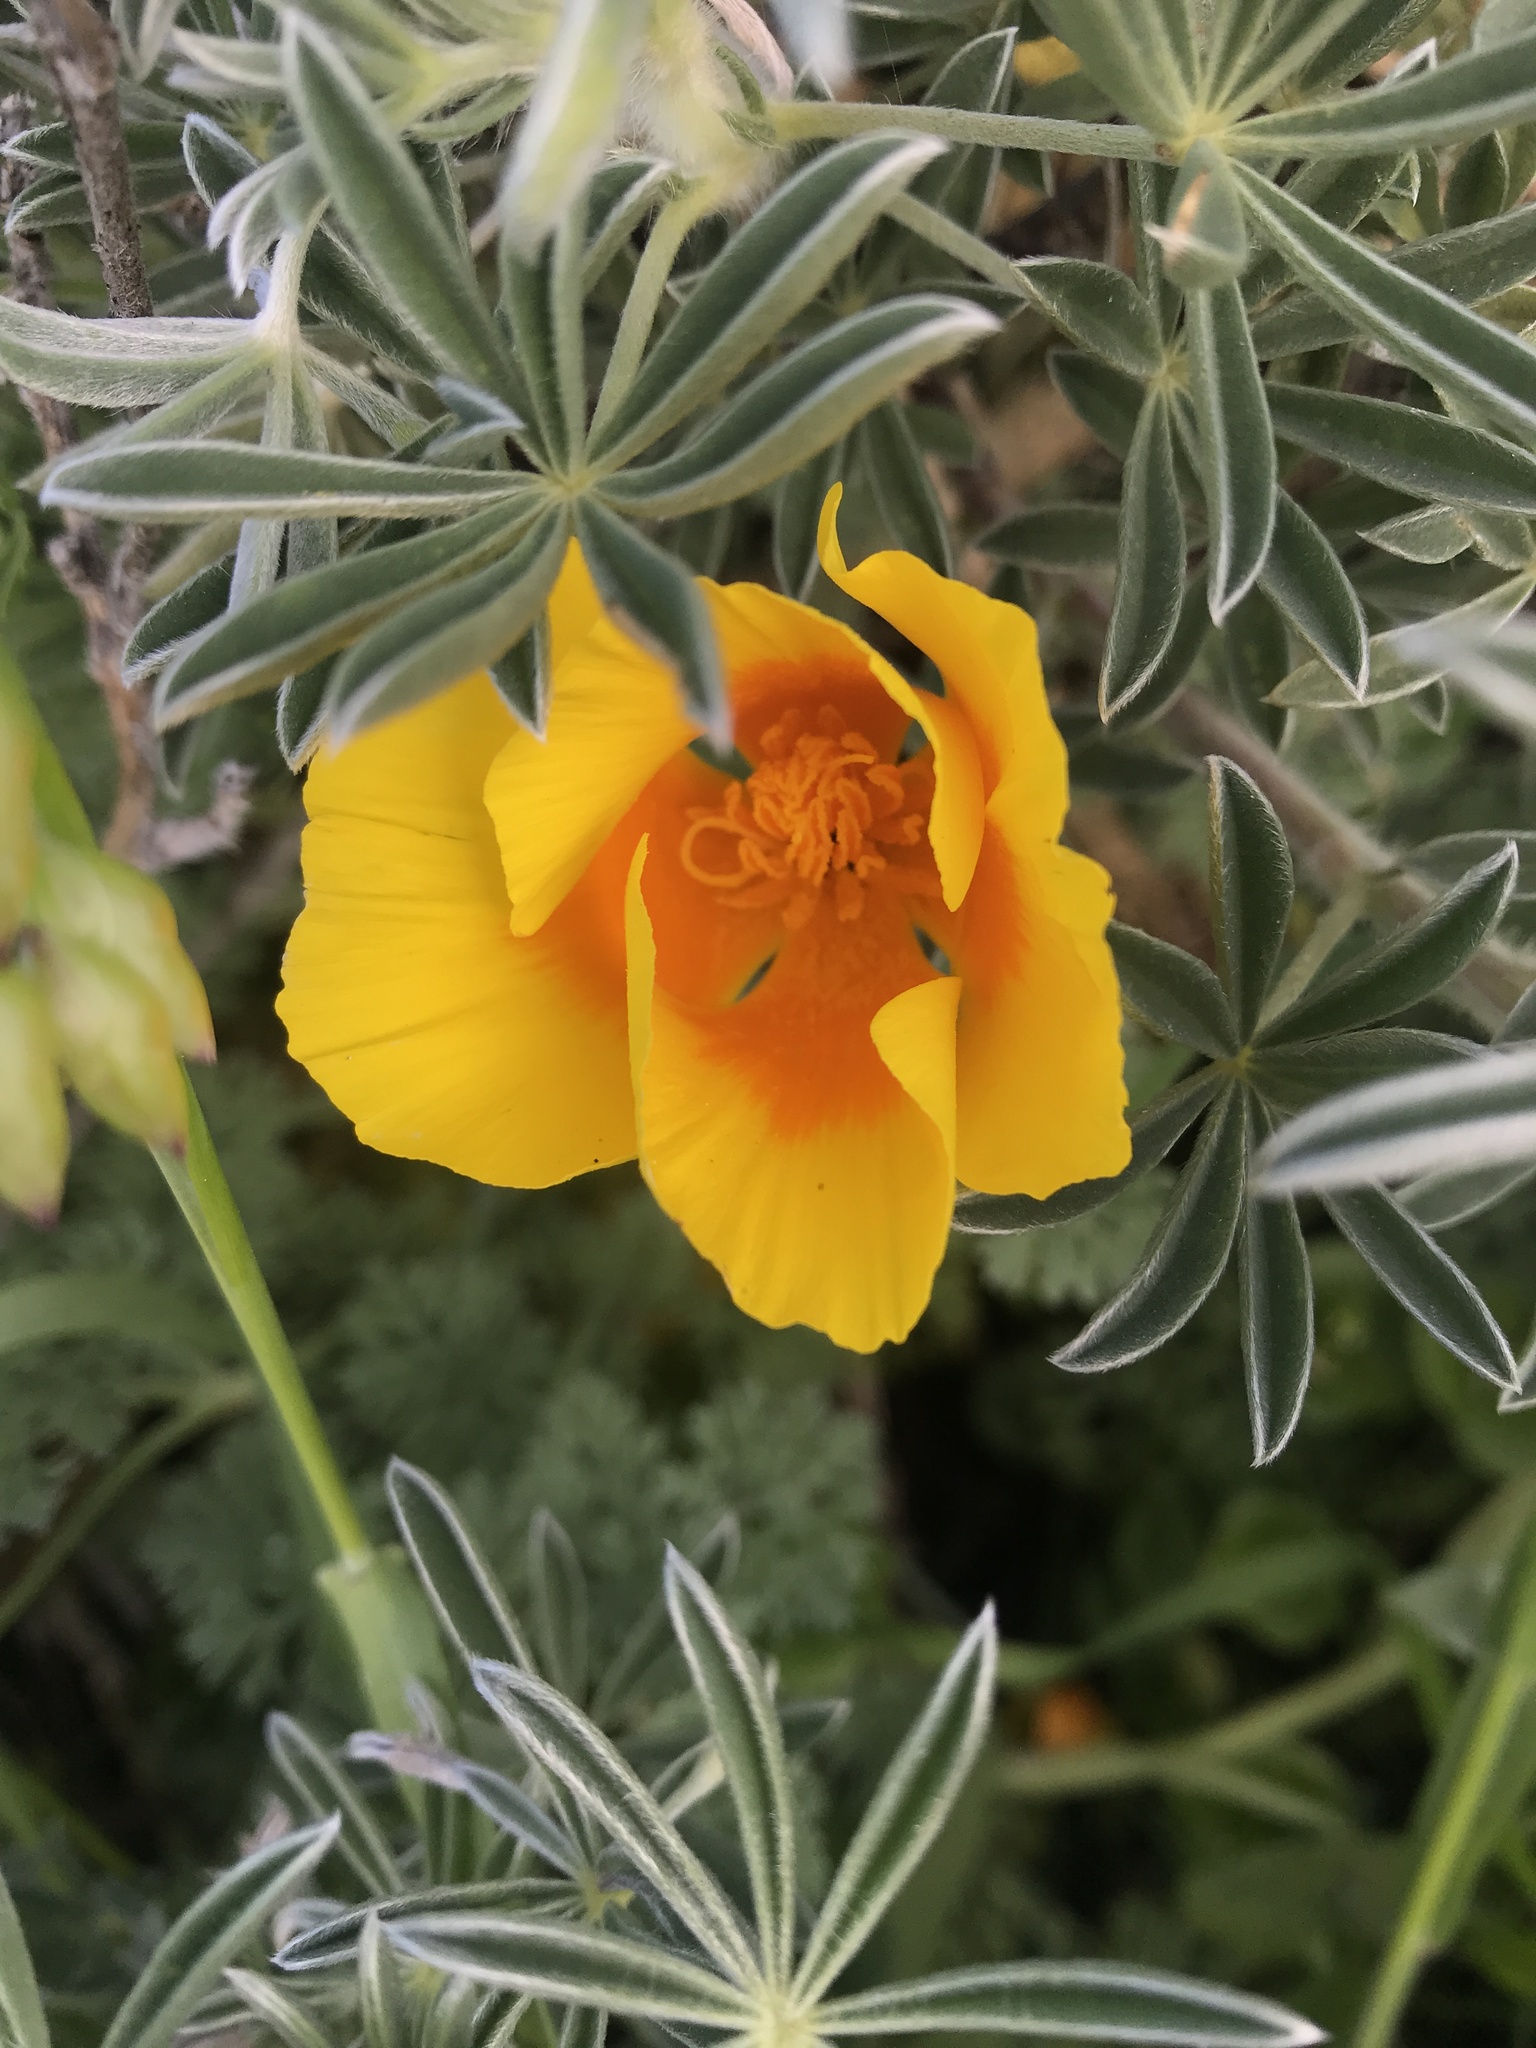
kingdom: Plantae
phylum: Tracheophyta
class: Magnoliopsida
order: Ranunculales
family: Papaveraceae
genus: Eschscholzia
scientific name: Eschscholzia californica
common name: California poppy
